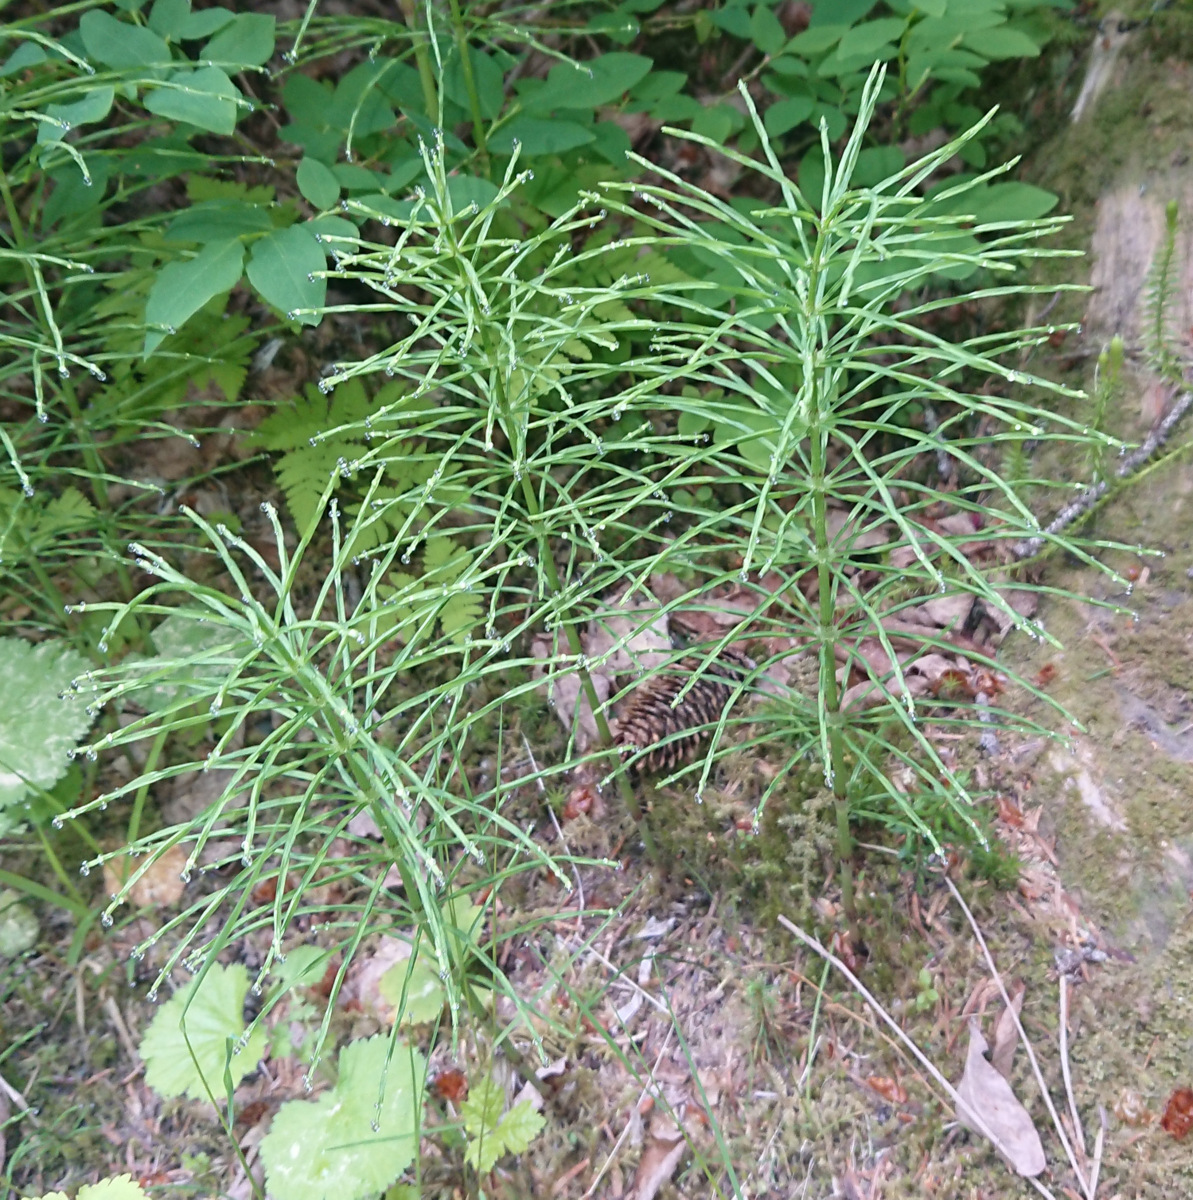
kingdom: Plantae
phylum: Tracheophyta
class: Polypodiopsida
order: Equisetales
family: Equisetaceae
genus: Equisetum
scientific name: Equisetum arvense
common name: Field horsetail
